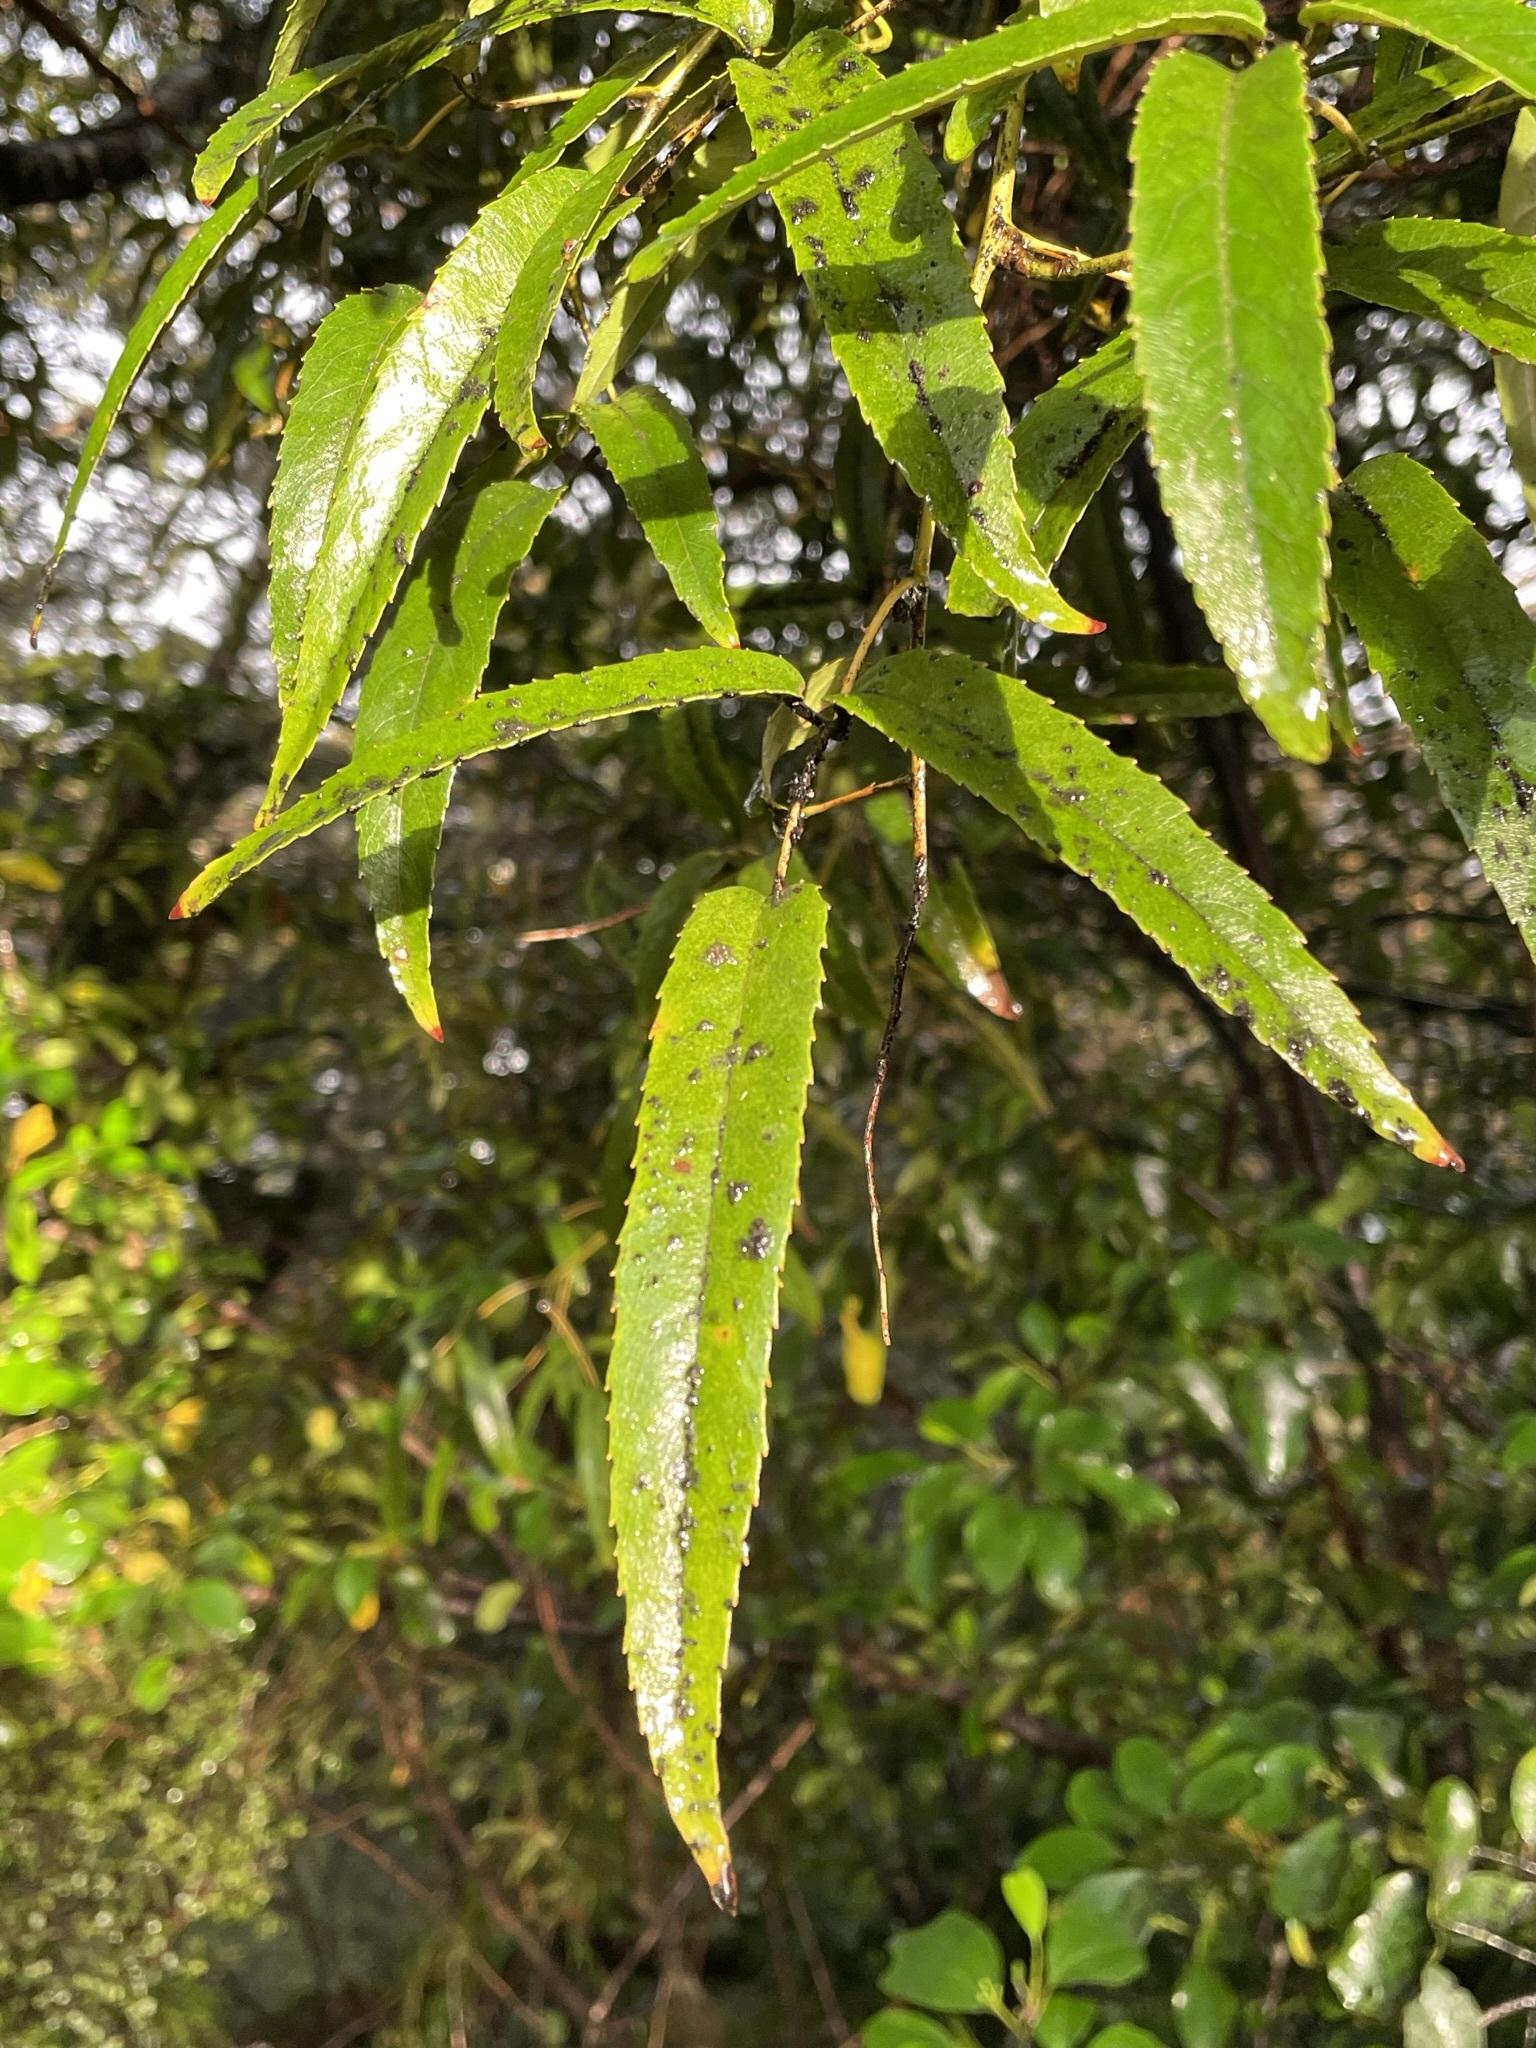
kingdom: Plantae
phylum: Tracheophyta
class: Magnoliopsida
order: Rosales
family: Rosaceae
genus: Rubus
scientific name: Rubus cissoides
